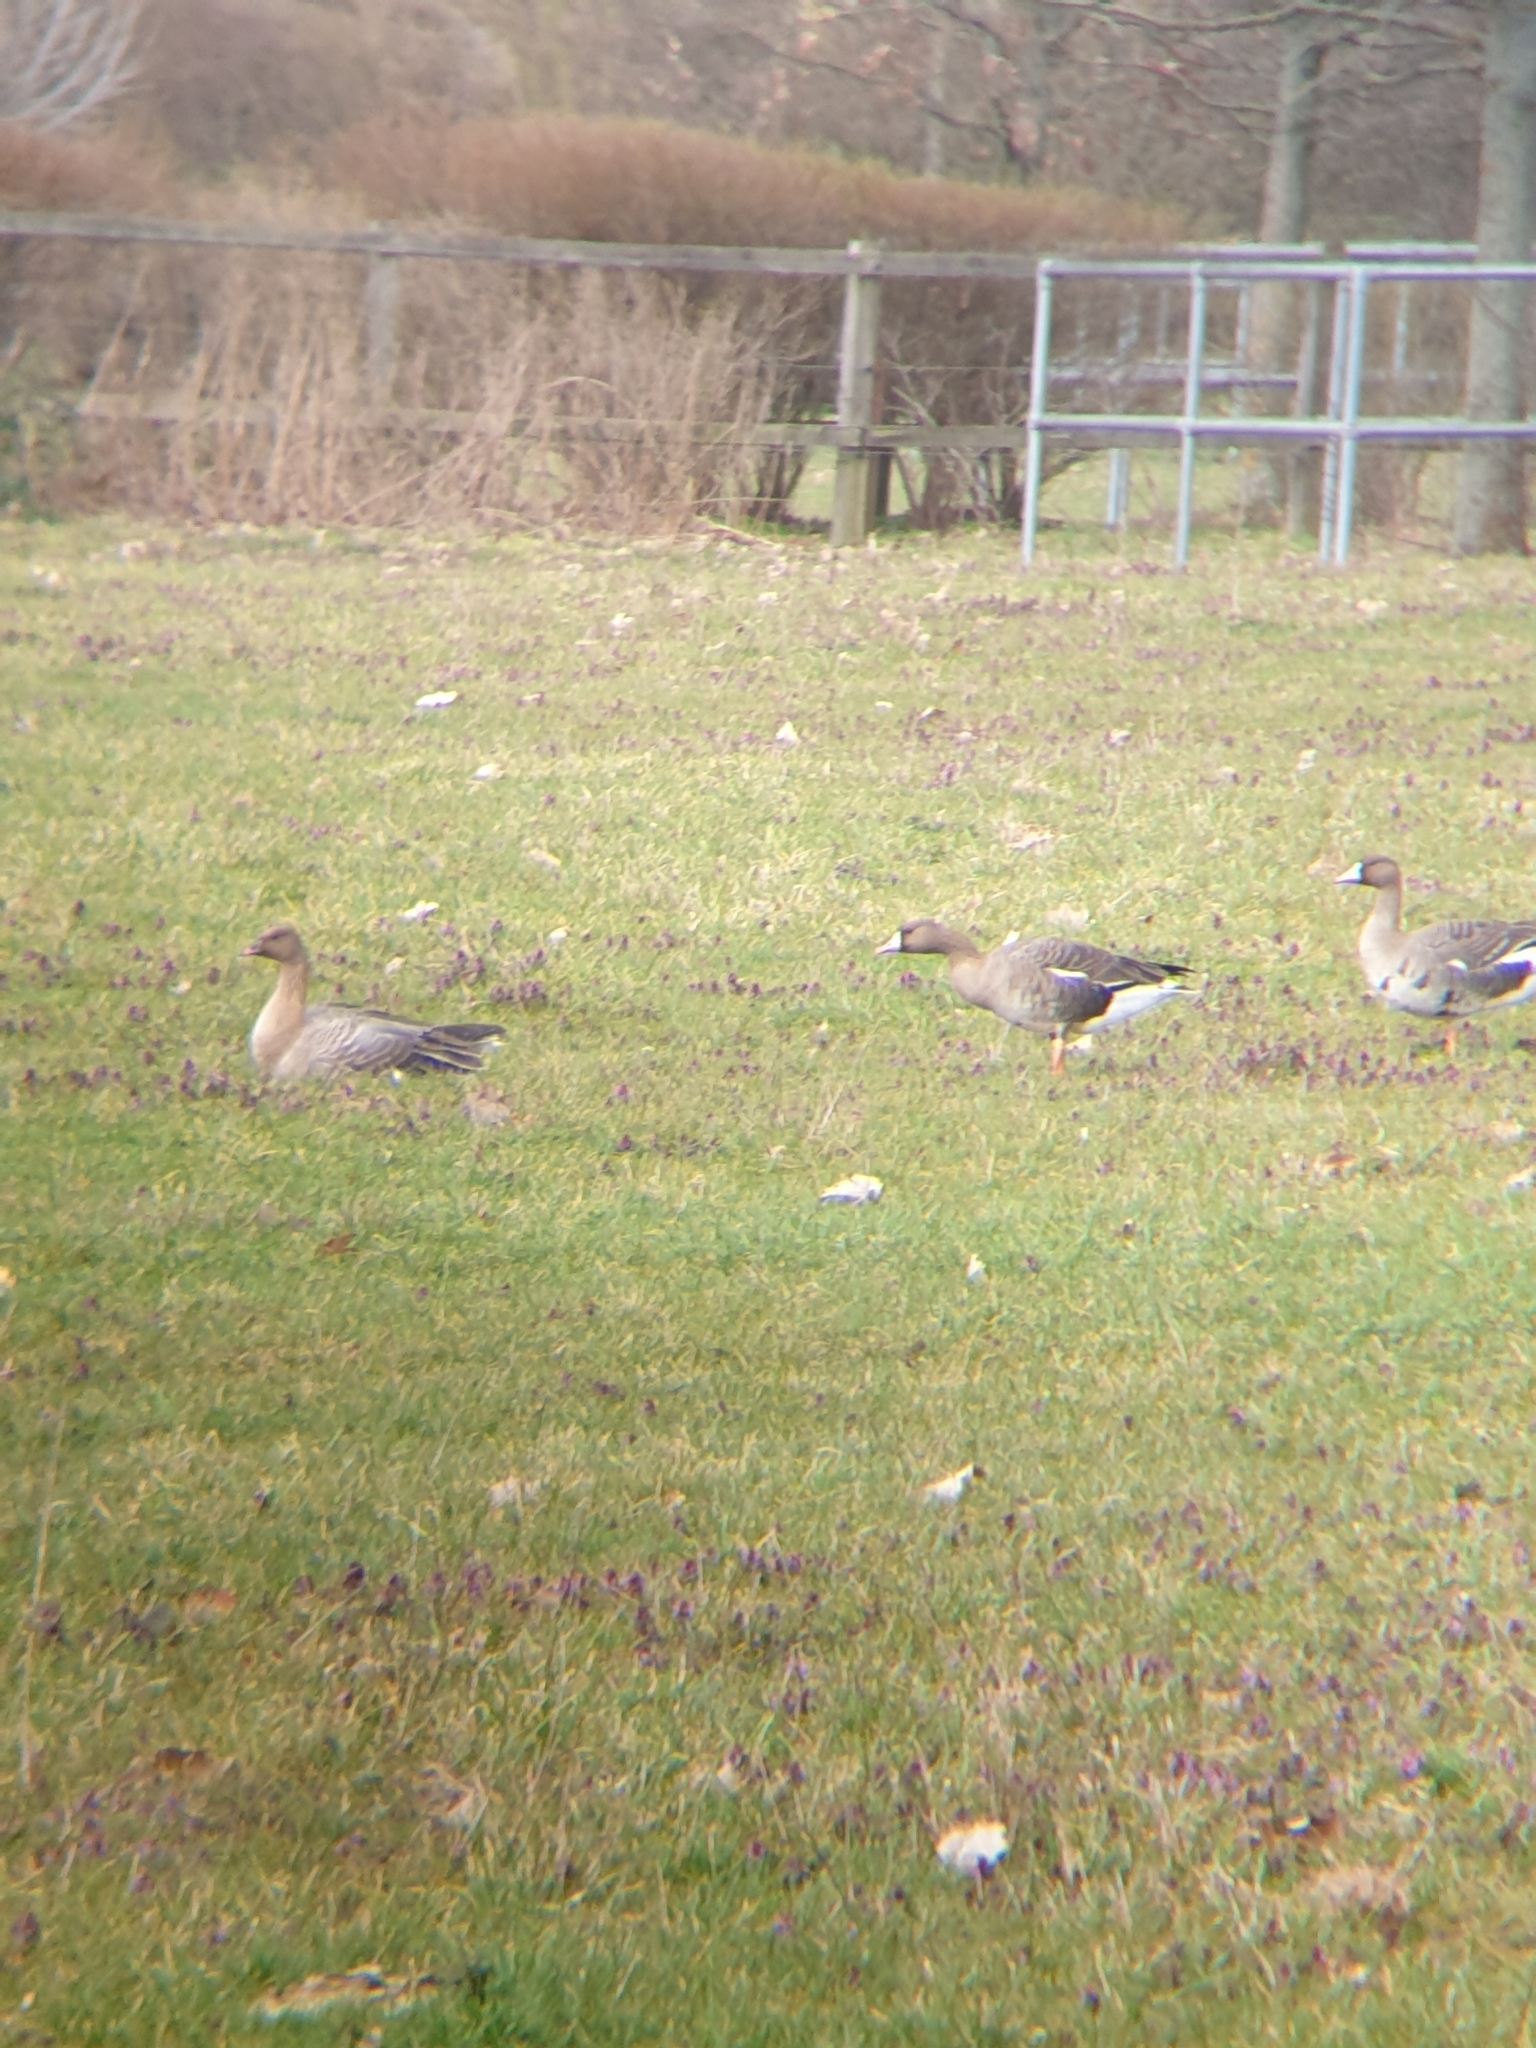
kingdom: Animalia
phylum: Chordata
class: Aves
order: Anseriformes
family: Anatidae
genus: Anser
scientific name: Anser albifrons
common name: Greater white-fronted goose
